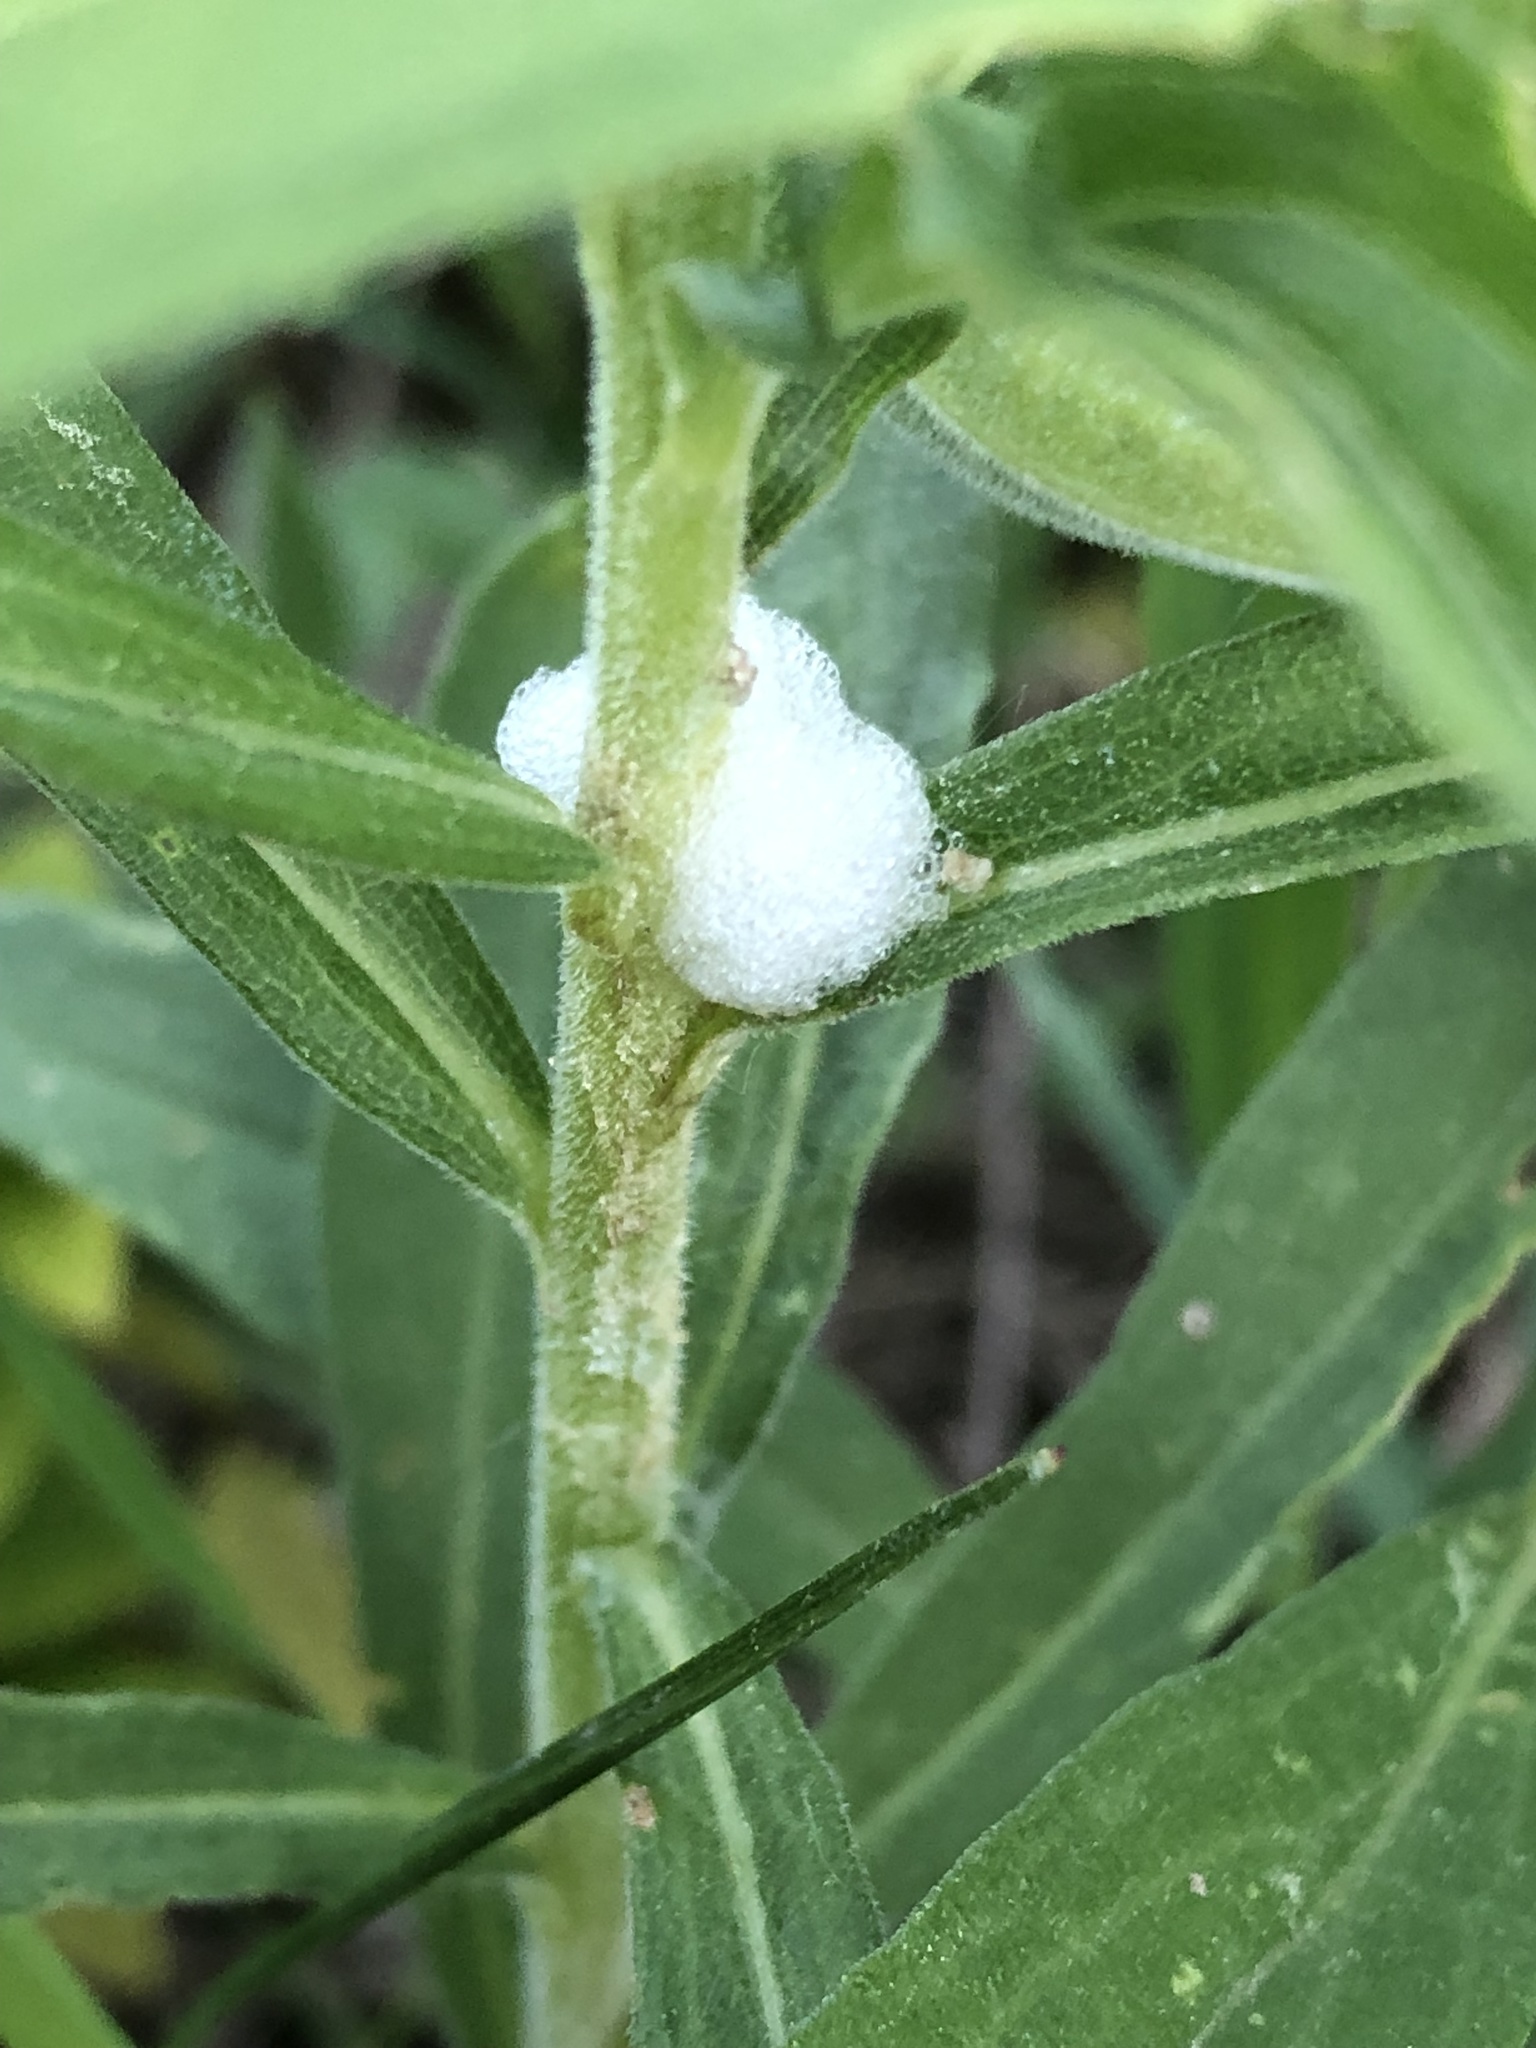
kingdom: Animalia
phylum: Arthropoda
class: Insecta
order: Hemiptera
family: Aphrophoridae
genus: Philaenus
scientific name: Philaenus spumarius
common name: Meadow spittlebug
